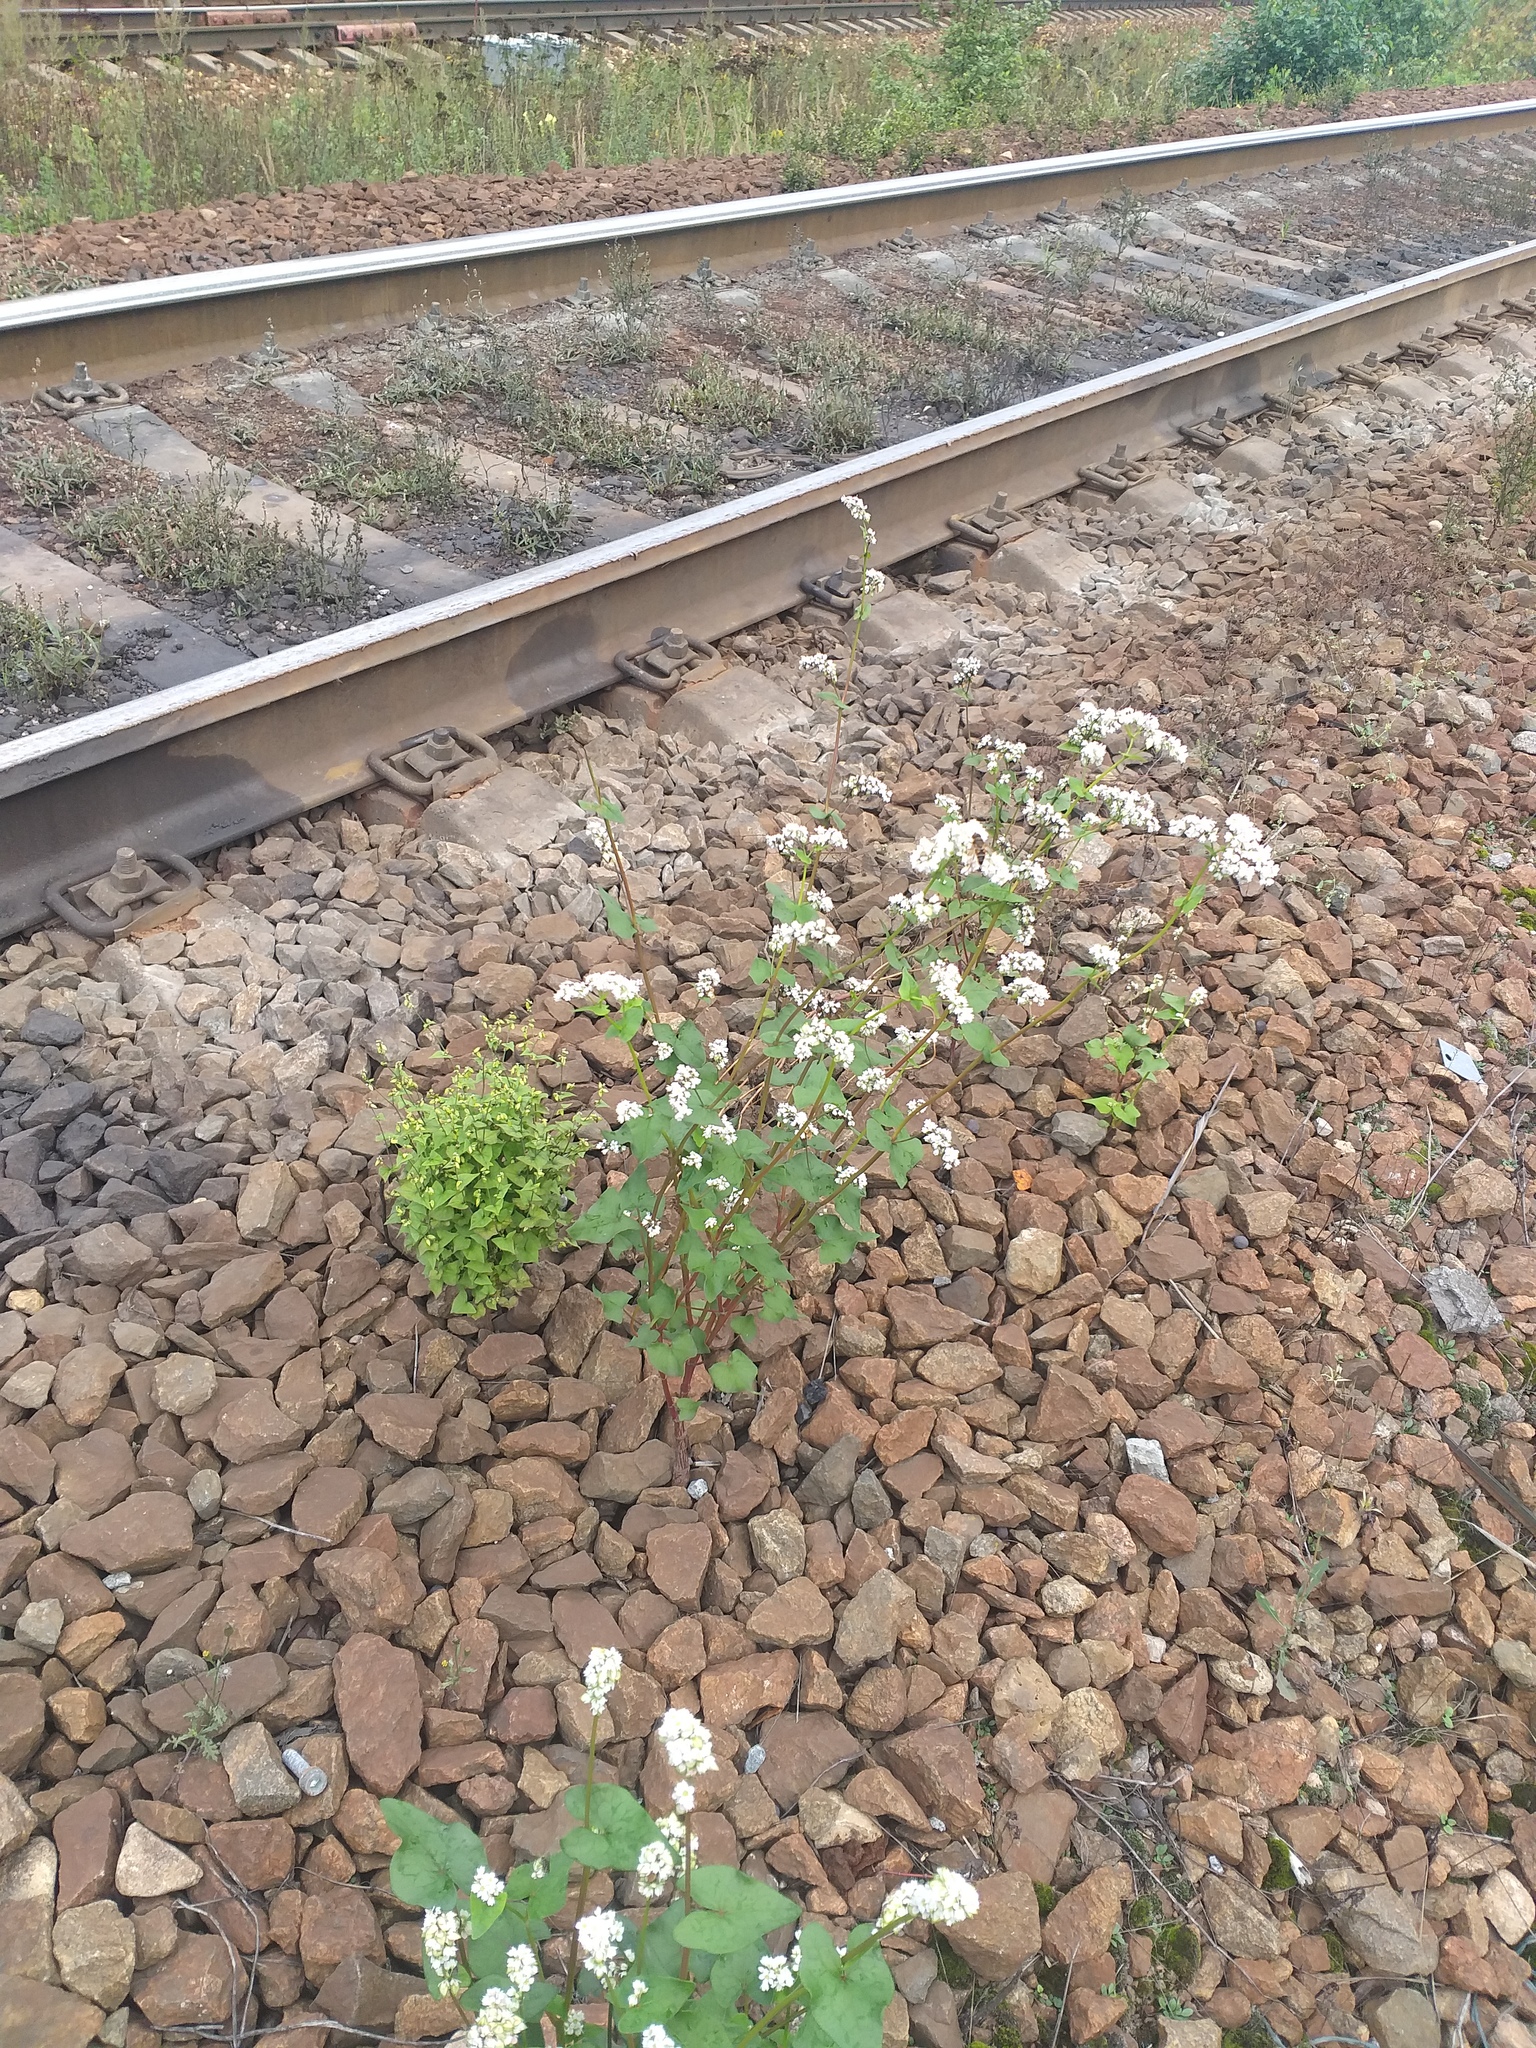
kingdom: Plantae
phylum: Tracheophyta
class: Magnoliopsida
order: Caryophyllales
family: Polygonaceae
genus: Fagopyrum
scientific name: Fagopyrum esculentum
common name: Buckwheat
